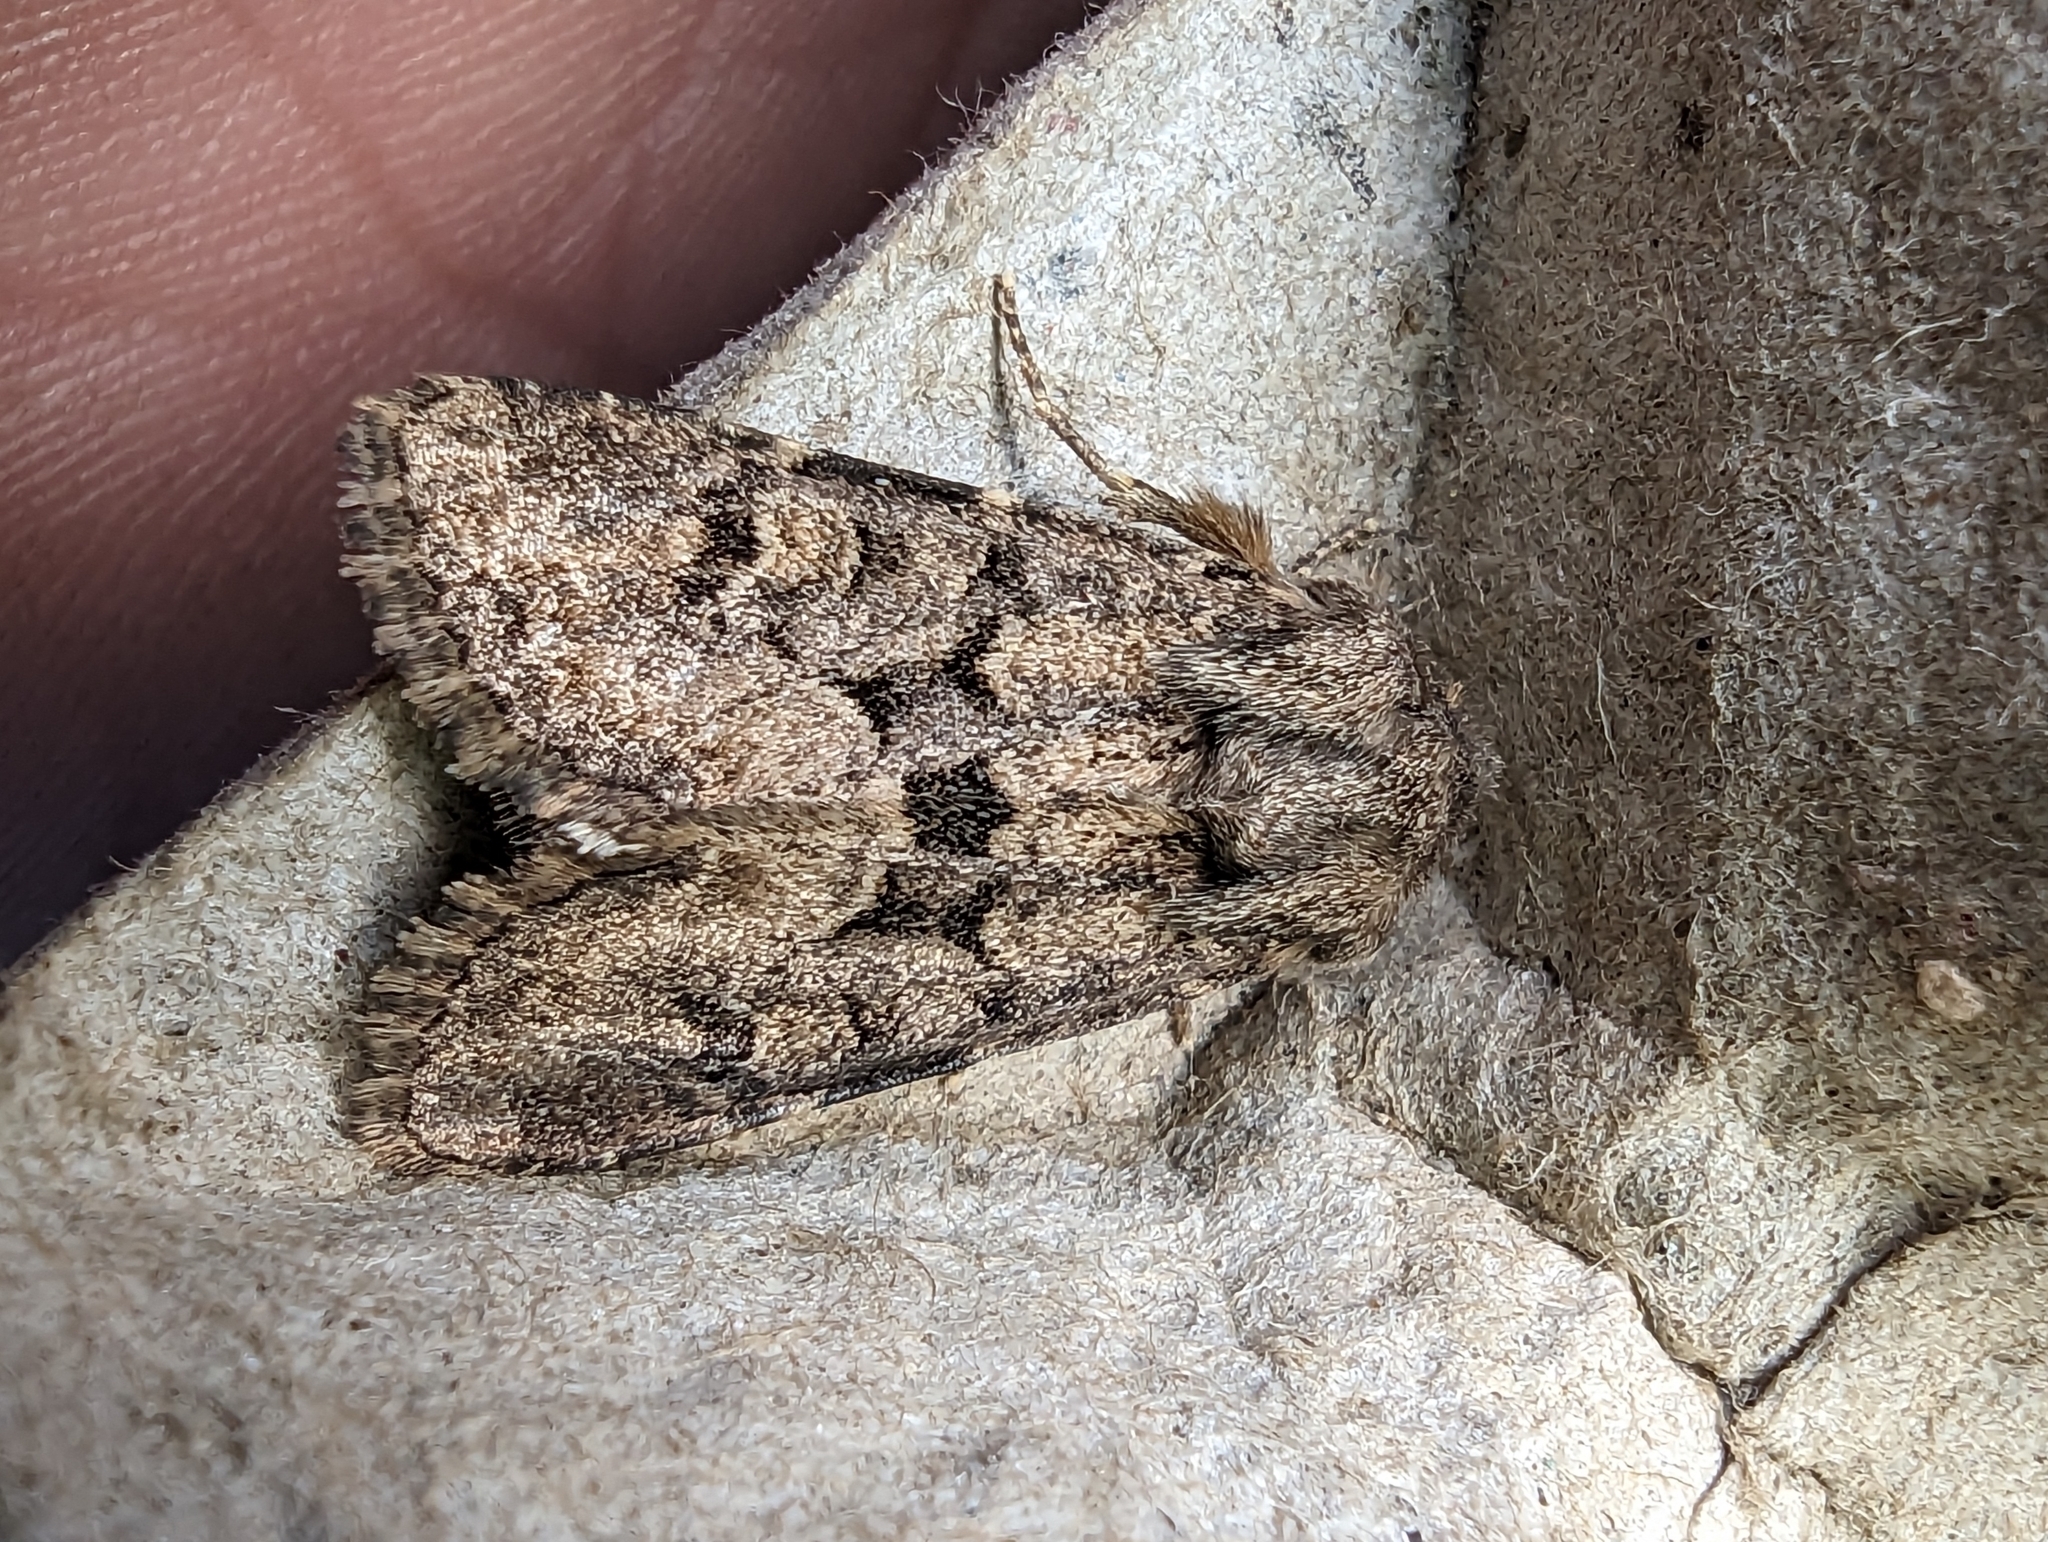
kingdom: Animalia
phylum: Arthropoda
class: Insecta
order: Lepidoptera
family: Noctuidae
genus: Luperina
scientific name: Luperina testacea
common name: Flounced rustic
